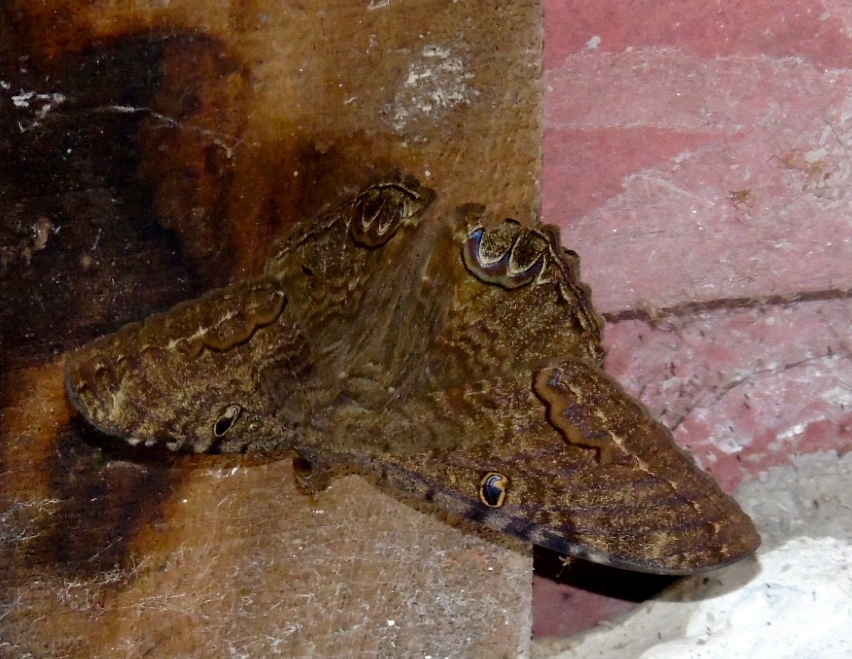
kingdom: Animalia
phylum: Arthropoda
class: Insecta
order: Lepidoptera
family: Erebidae
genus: Ascalapha
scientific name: Ascalapha odorata
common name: Black witch
